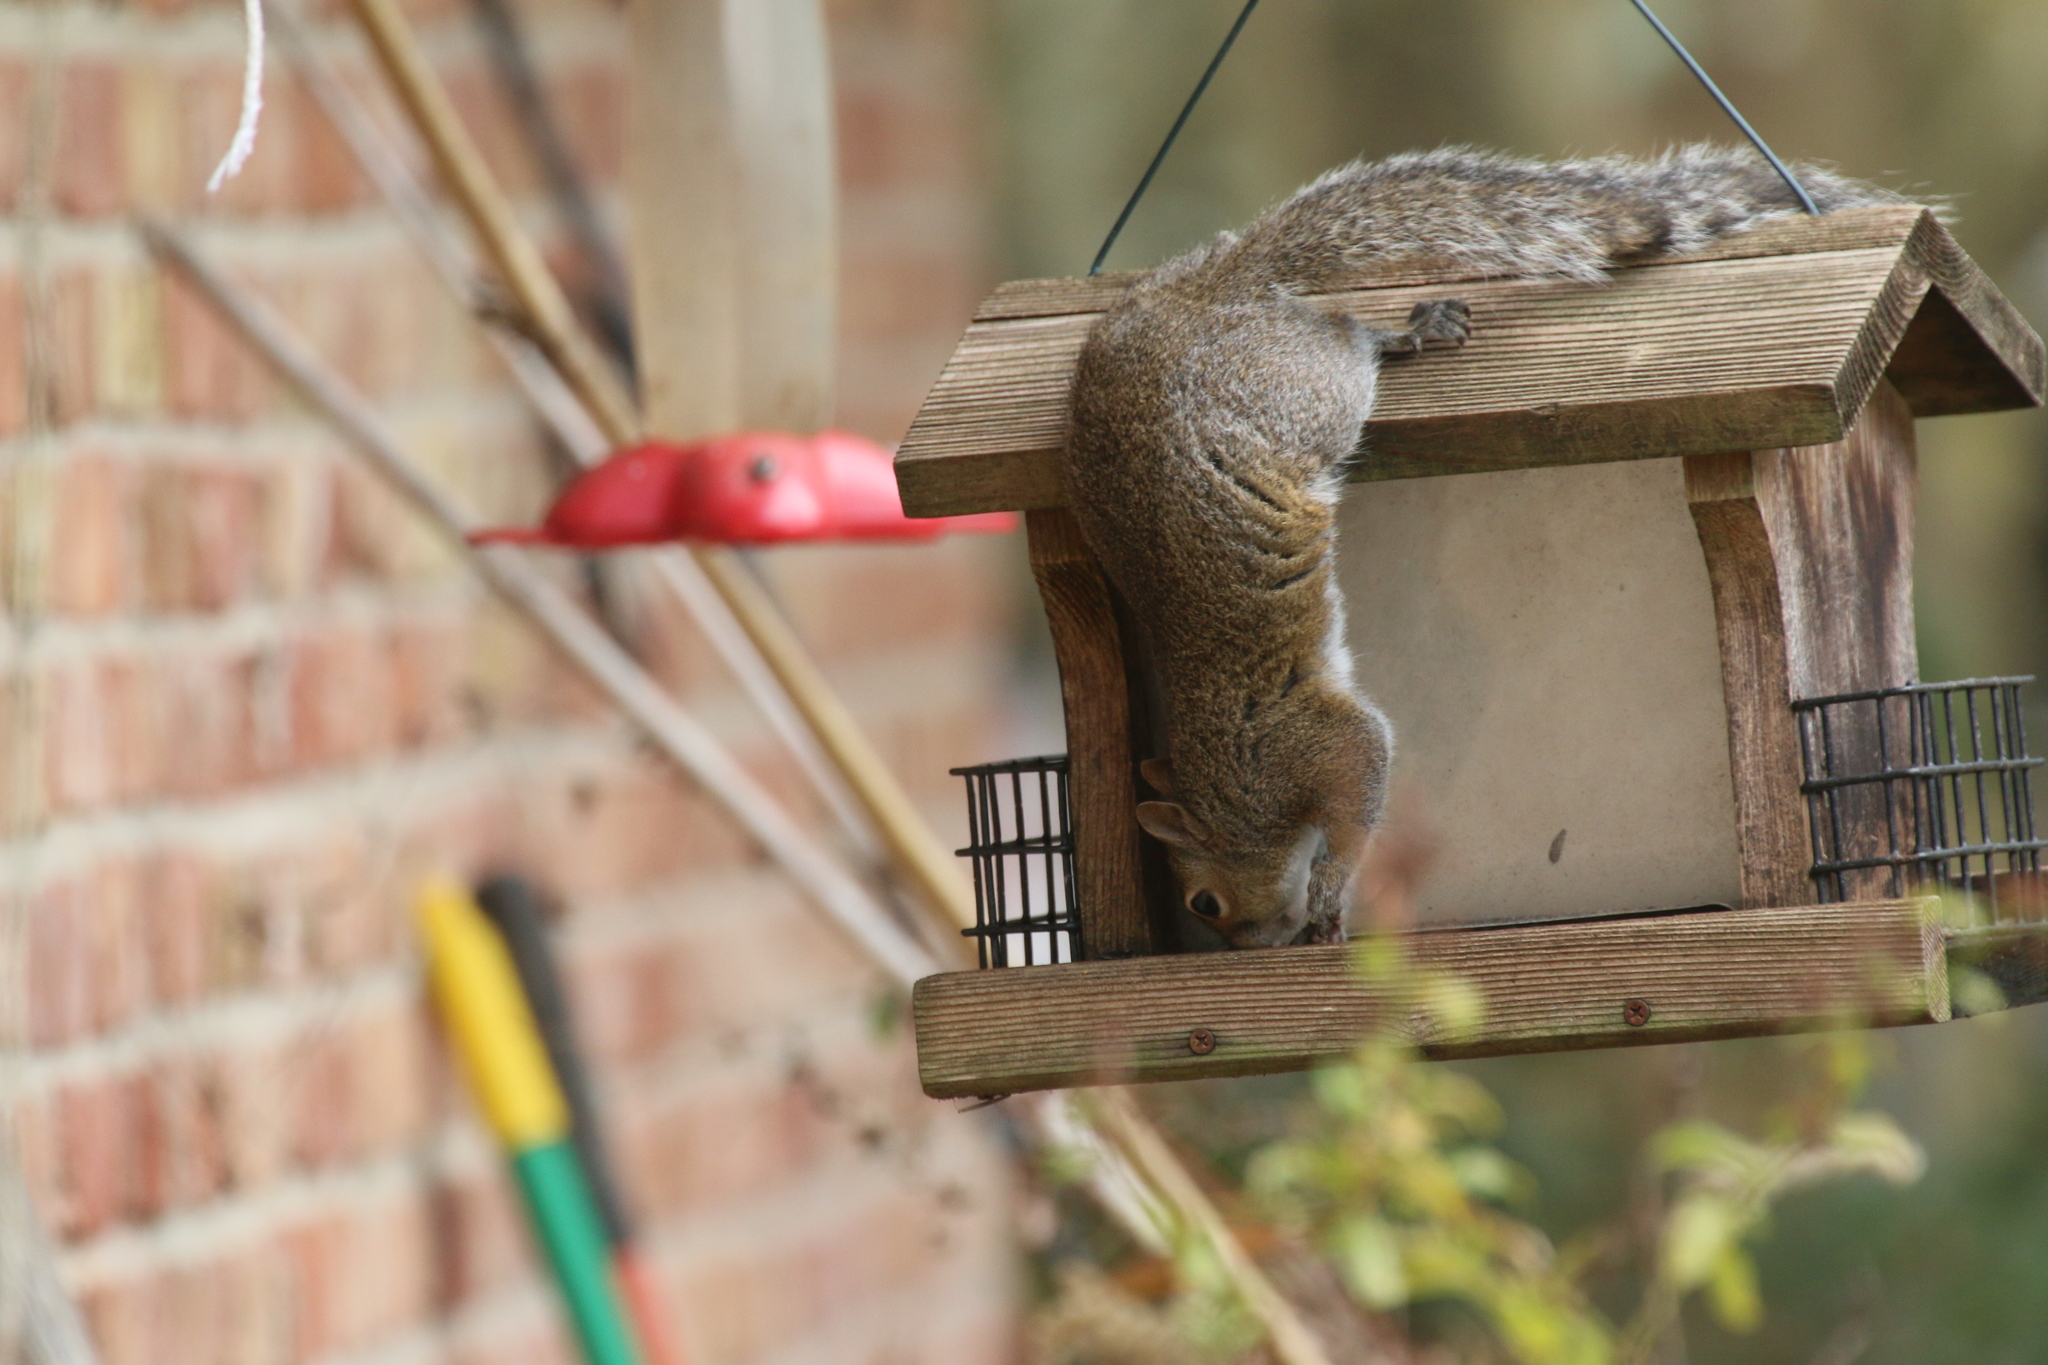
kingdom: Animalia
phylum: Chordata
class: Mammalia
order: Rodentia
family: Sciuridae
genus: Sciurus
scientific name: Sciurus carolinensis
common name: Eastern gray squirrel
